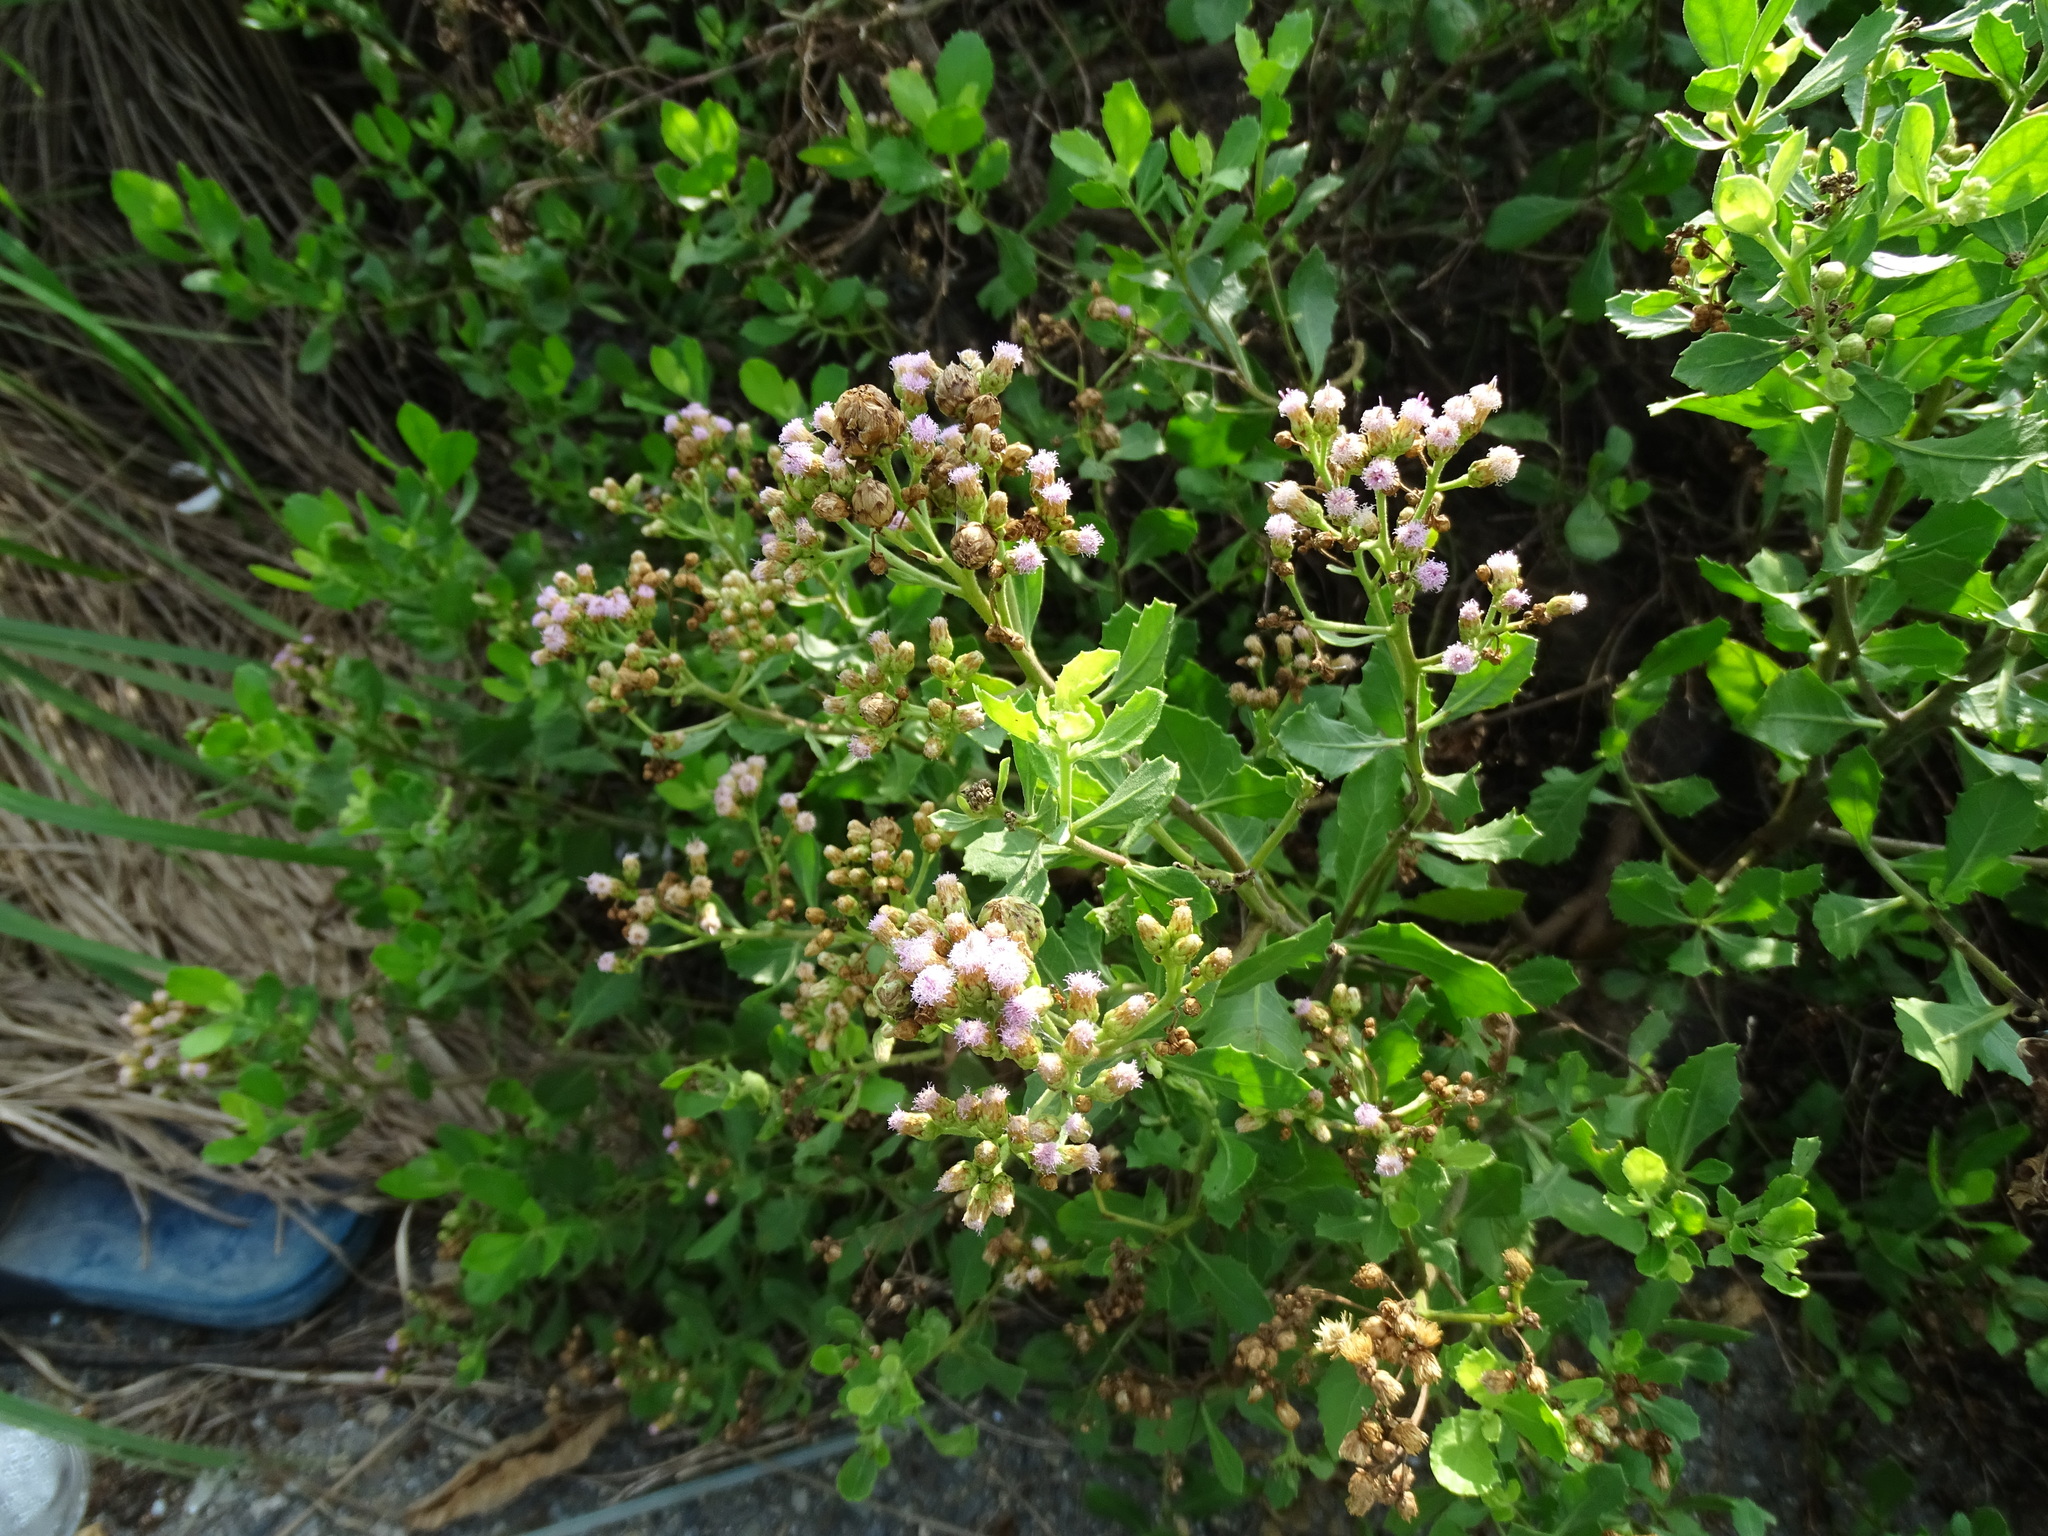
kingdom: Plantae
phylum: Tracheophyta
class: Magnoliopsida
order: Asterales
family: Asteraceae
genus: Pluchea
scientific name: Pluchea indica
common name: Indian fleabane
